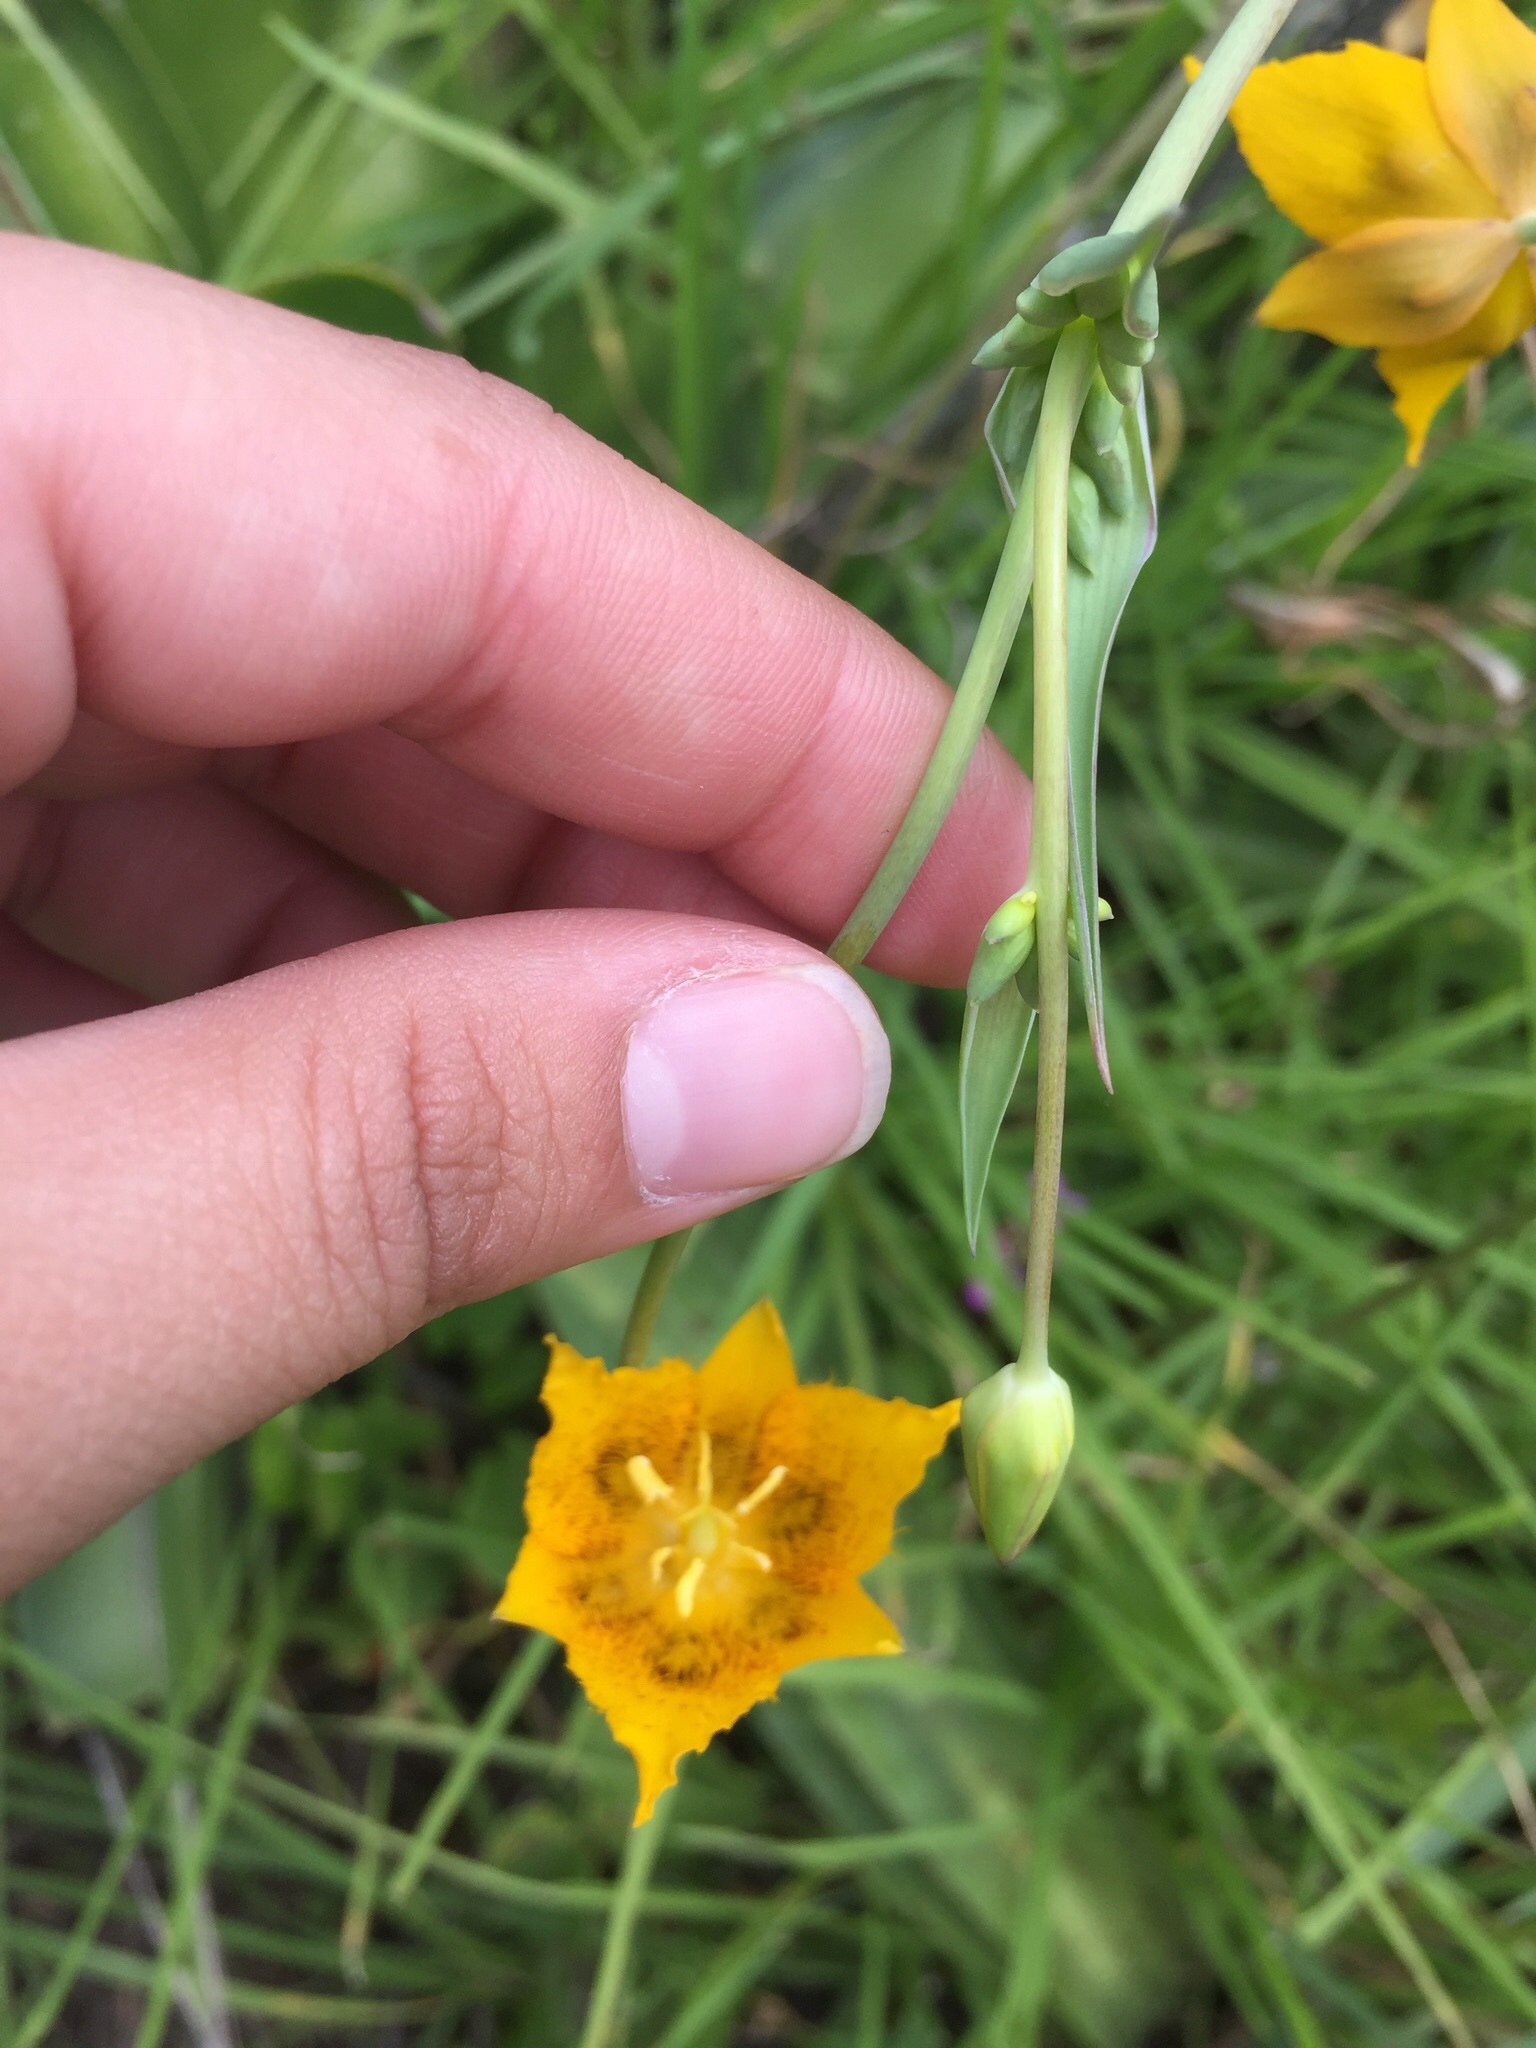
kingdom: Plantae
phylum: Tracheophyta
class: Liliopsida
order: Liliales
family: Liliaceae
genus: Calochortus
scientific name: Calochortus barbatus
